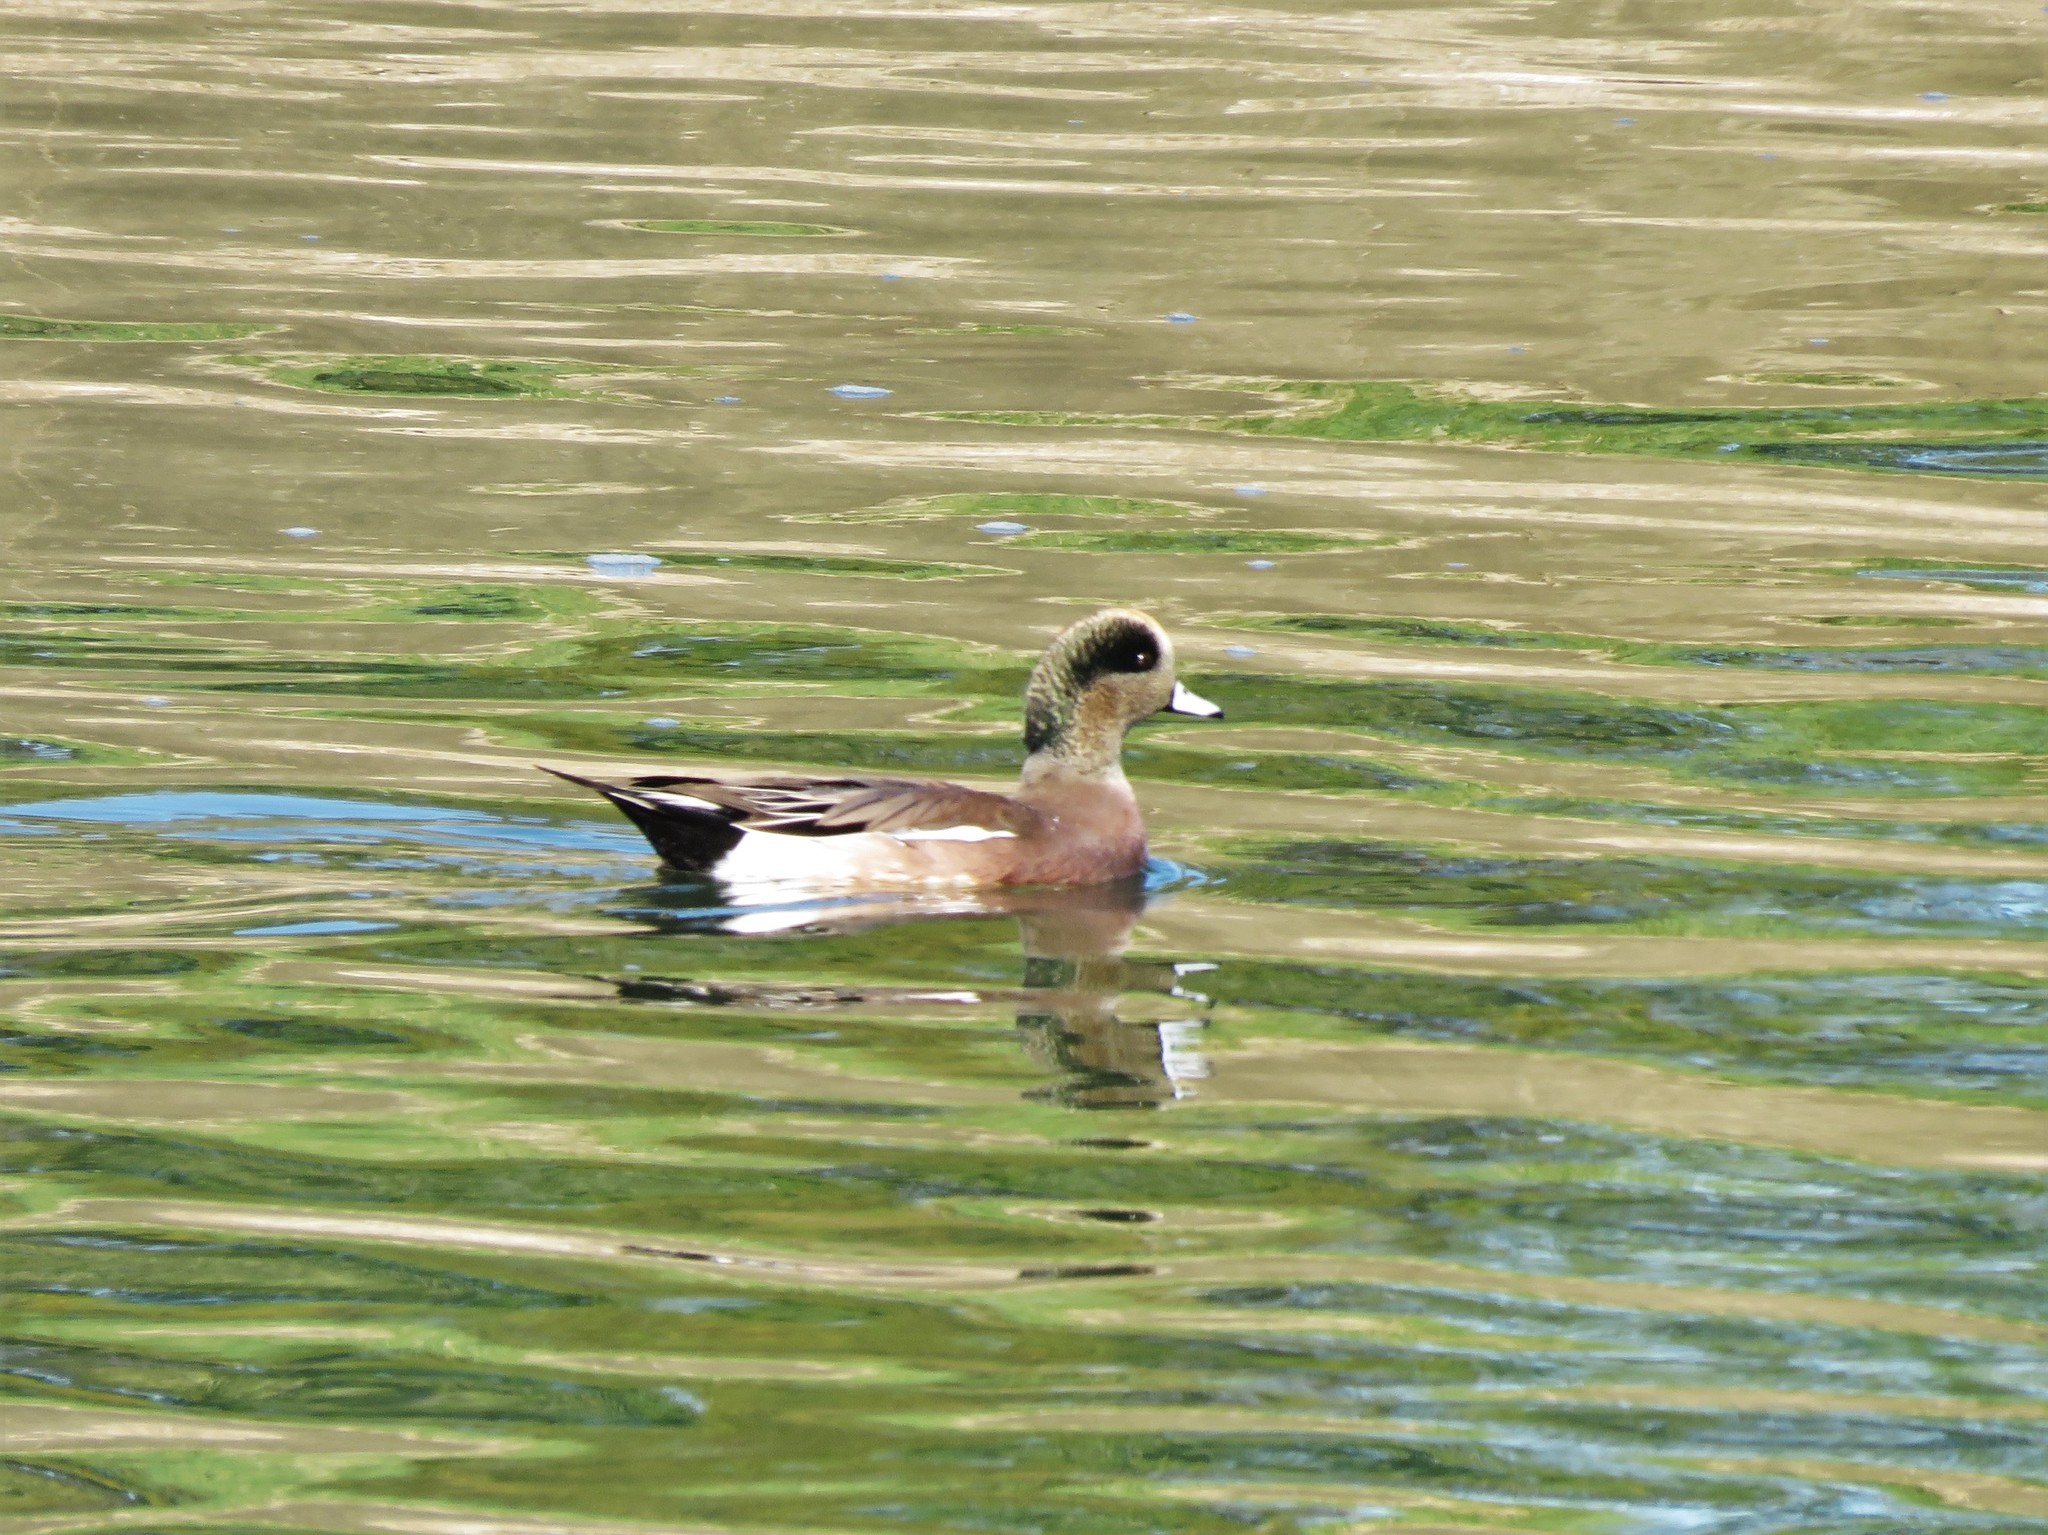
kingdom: Animalia
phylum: Chordata
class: Aves
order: Anseriformes
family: Anatidae
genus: Mareca
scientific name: Mareca americana
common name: American wigeon
